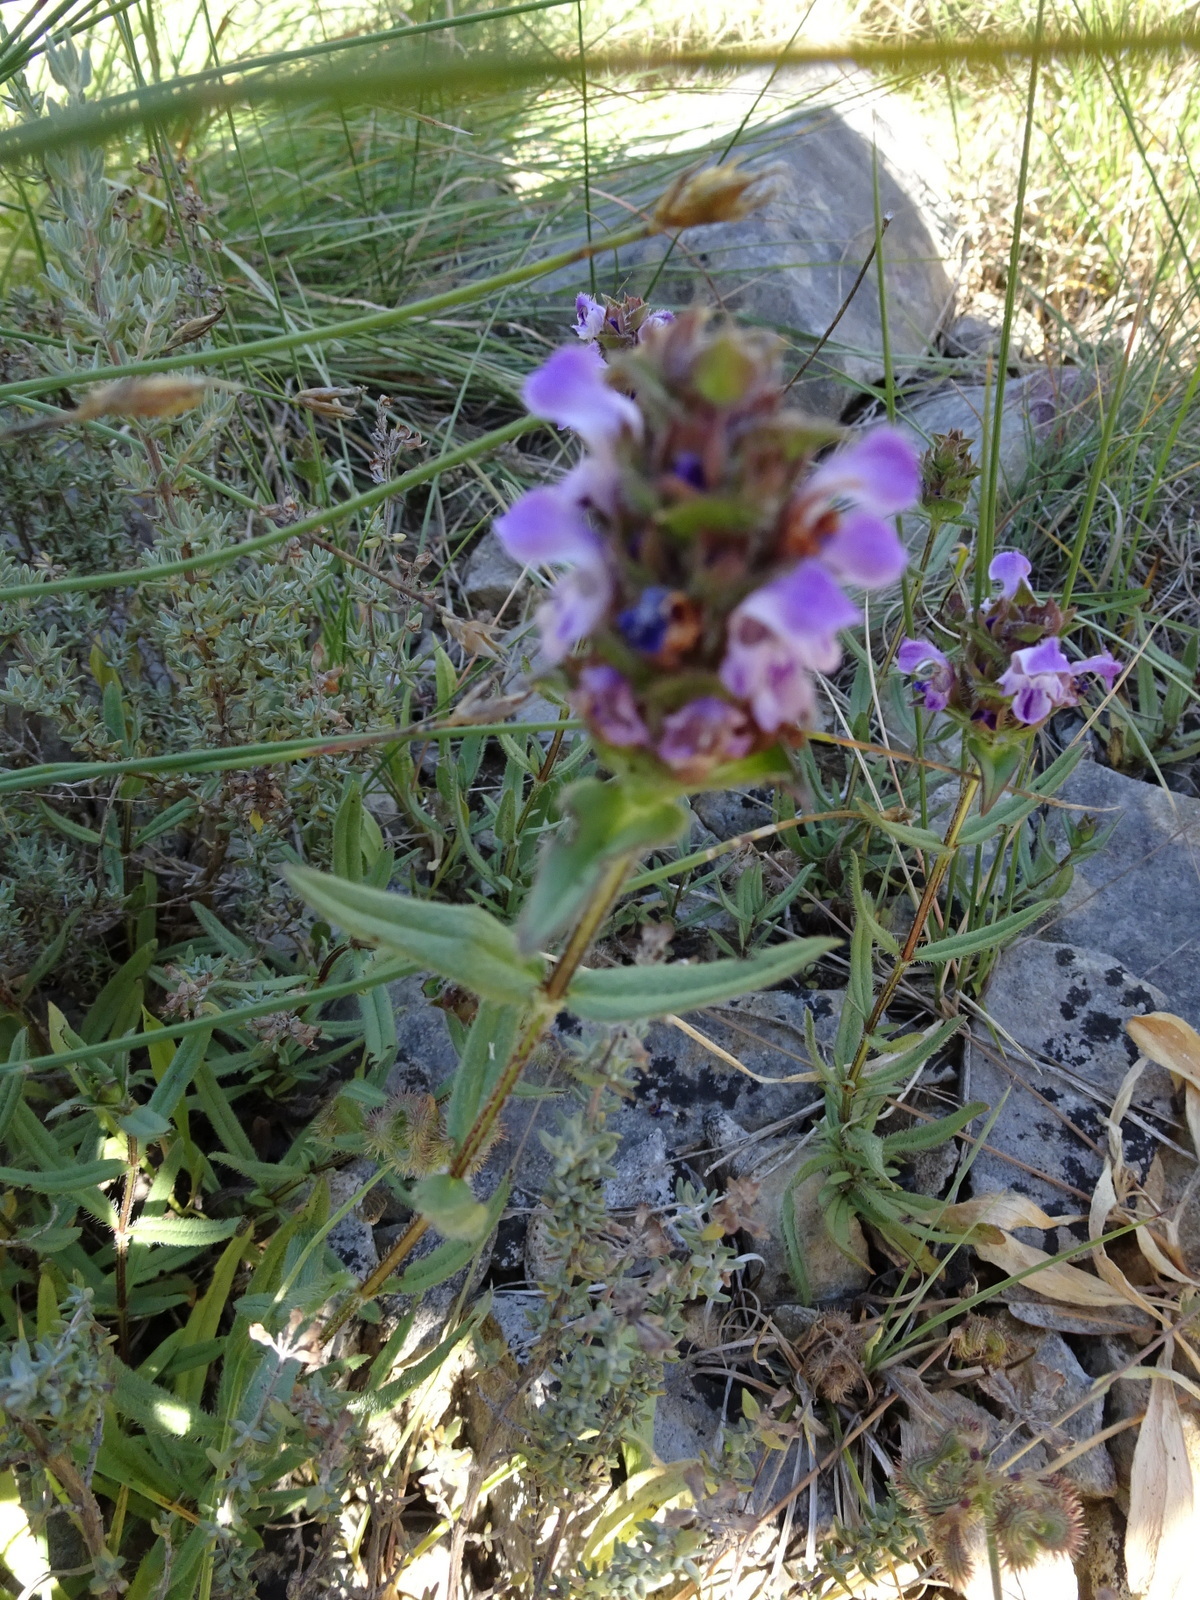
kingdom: Plantae
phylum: Tracheophyta
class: Magnoliopsida
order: Lamiales
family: Lamiaceae
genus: Prunella
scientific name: Prunella hyssopifolia
